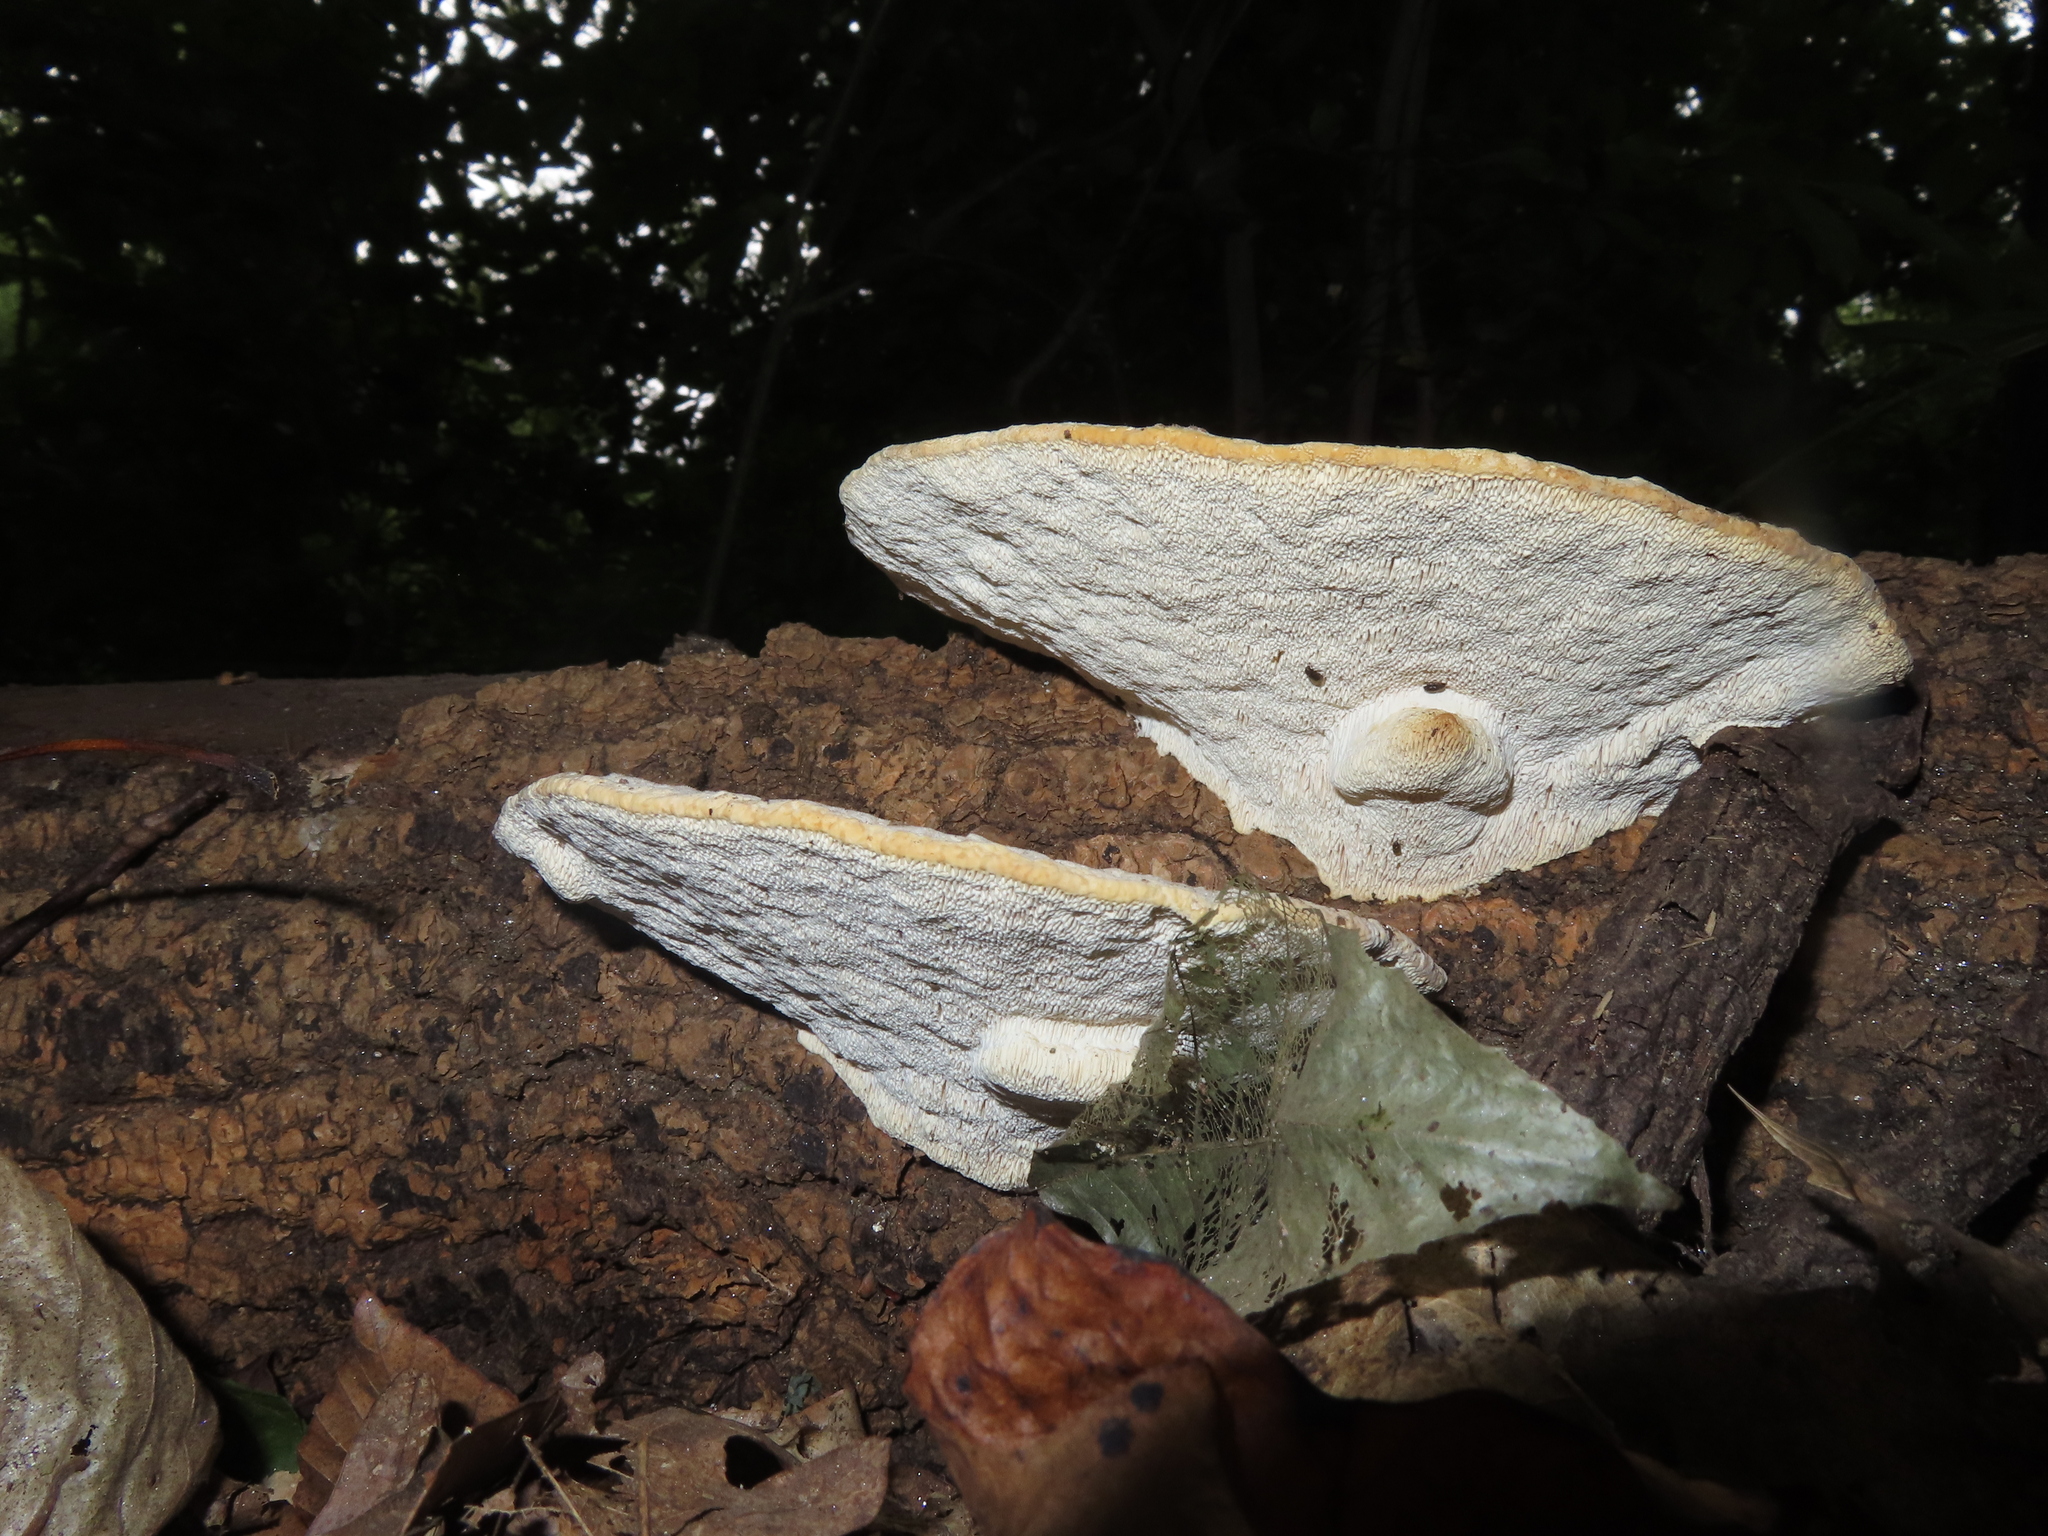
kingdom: Fungi
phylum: Basidiomycota
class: Agaricomycetes
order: Polyporales
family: Polyporaceae
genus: Trametes
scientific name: Trametes gibbosa
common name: Lumpy bracket
